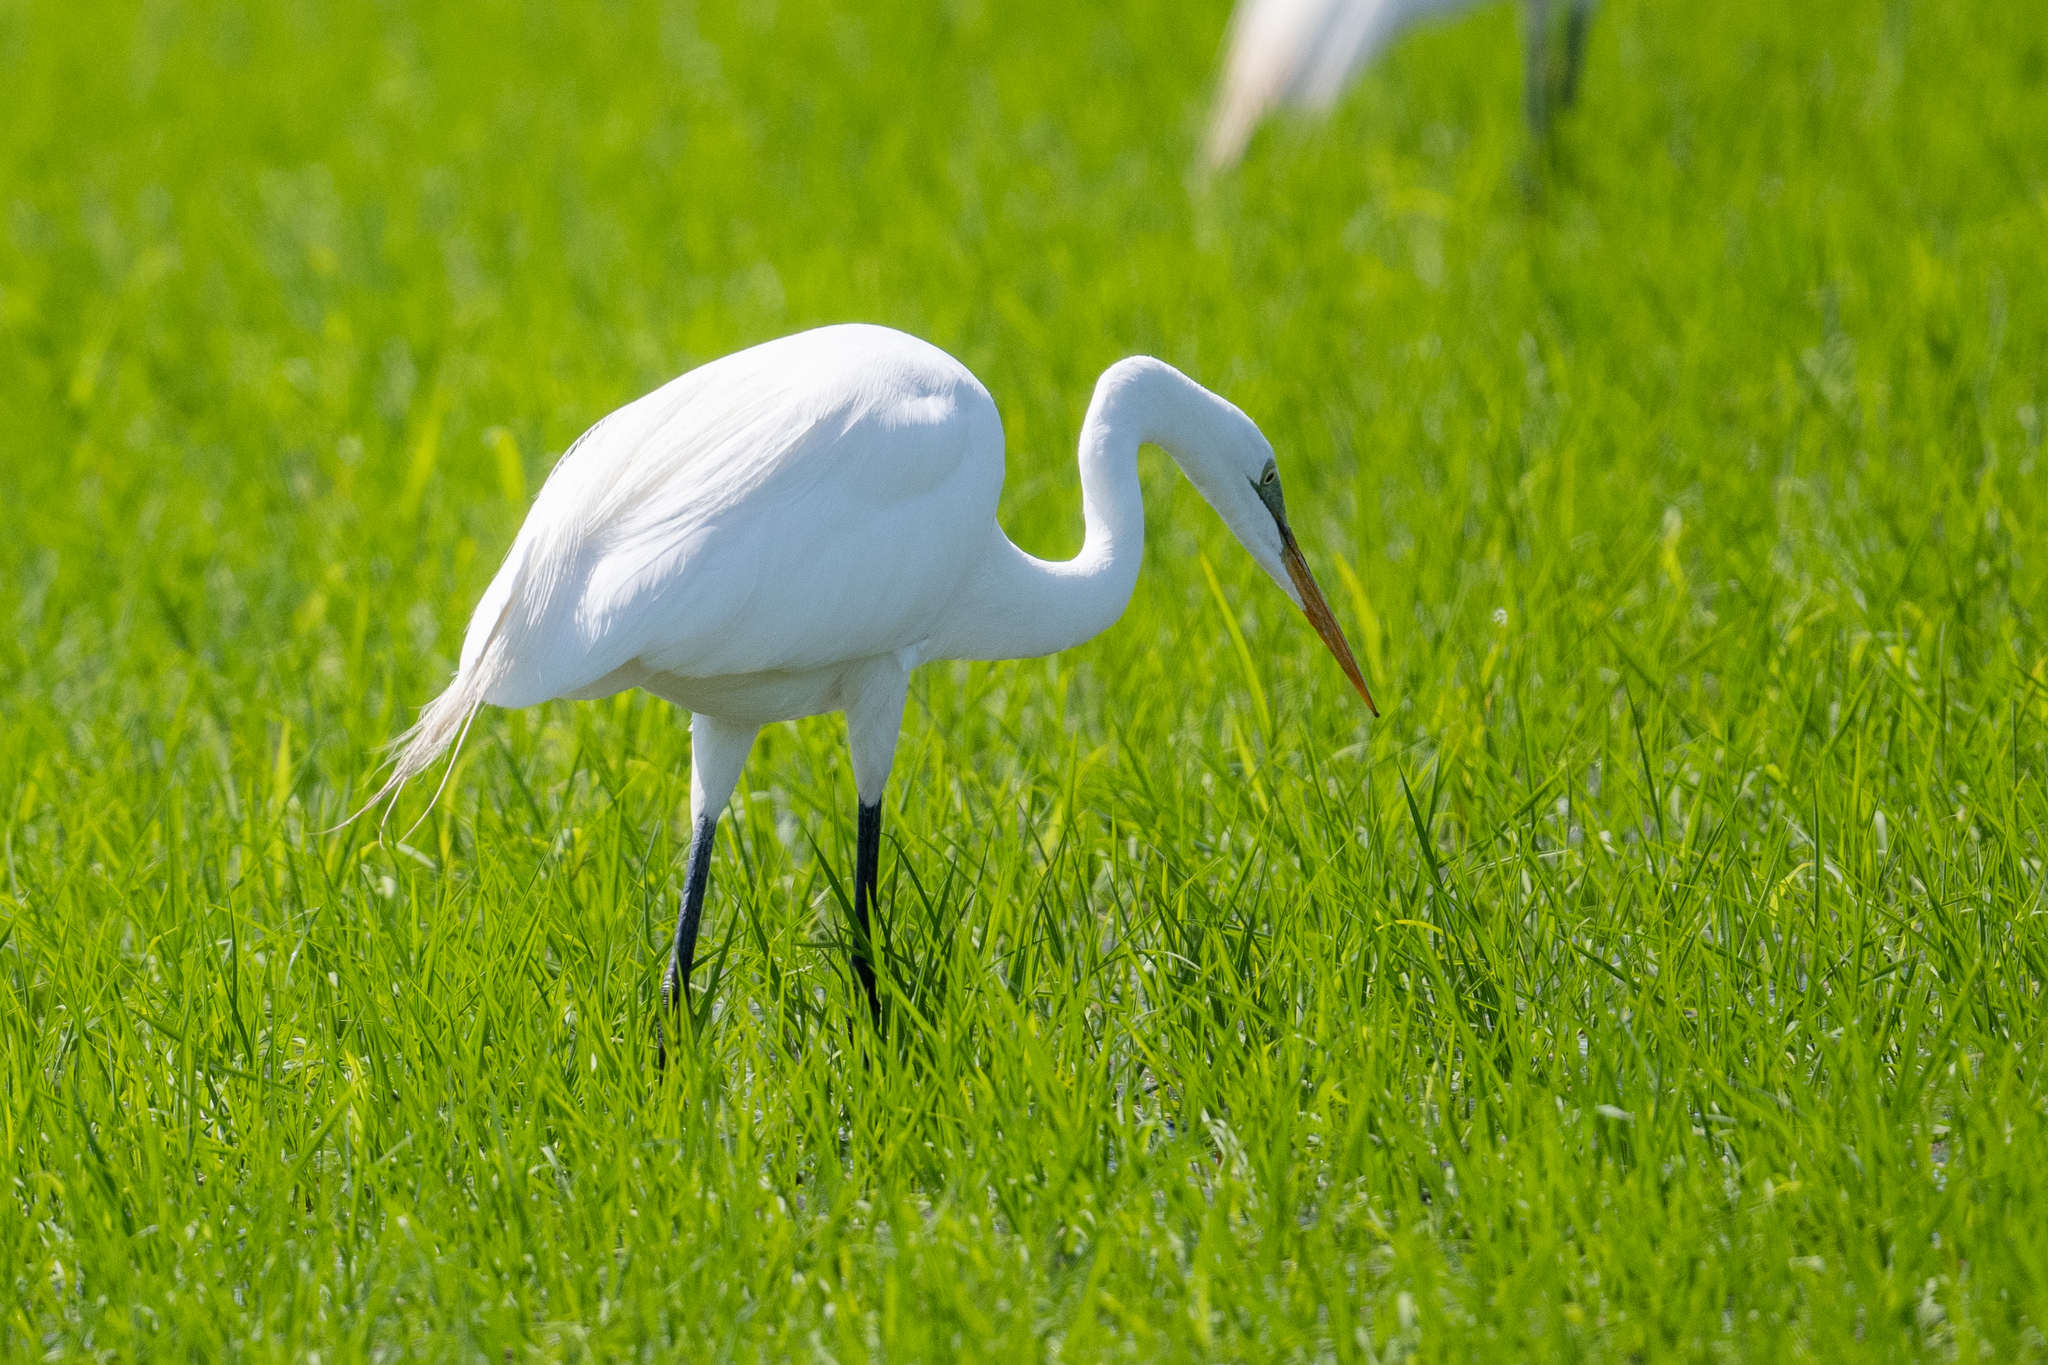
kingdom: Animalia
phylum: Chordata
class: Aves
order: Pelecaniformes
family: Ardeidae
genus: Ardea
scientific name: Ardea alba
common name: Great egret
